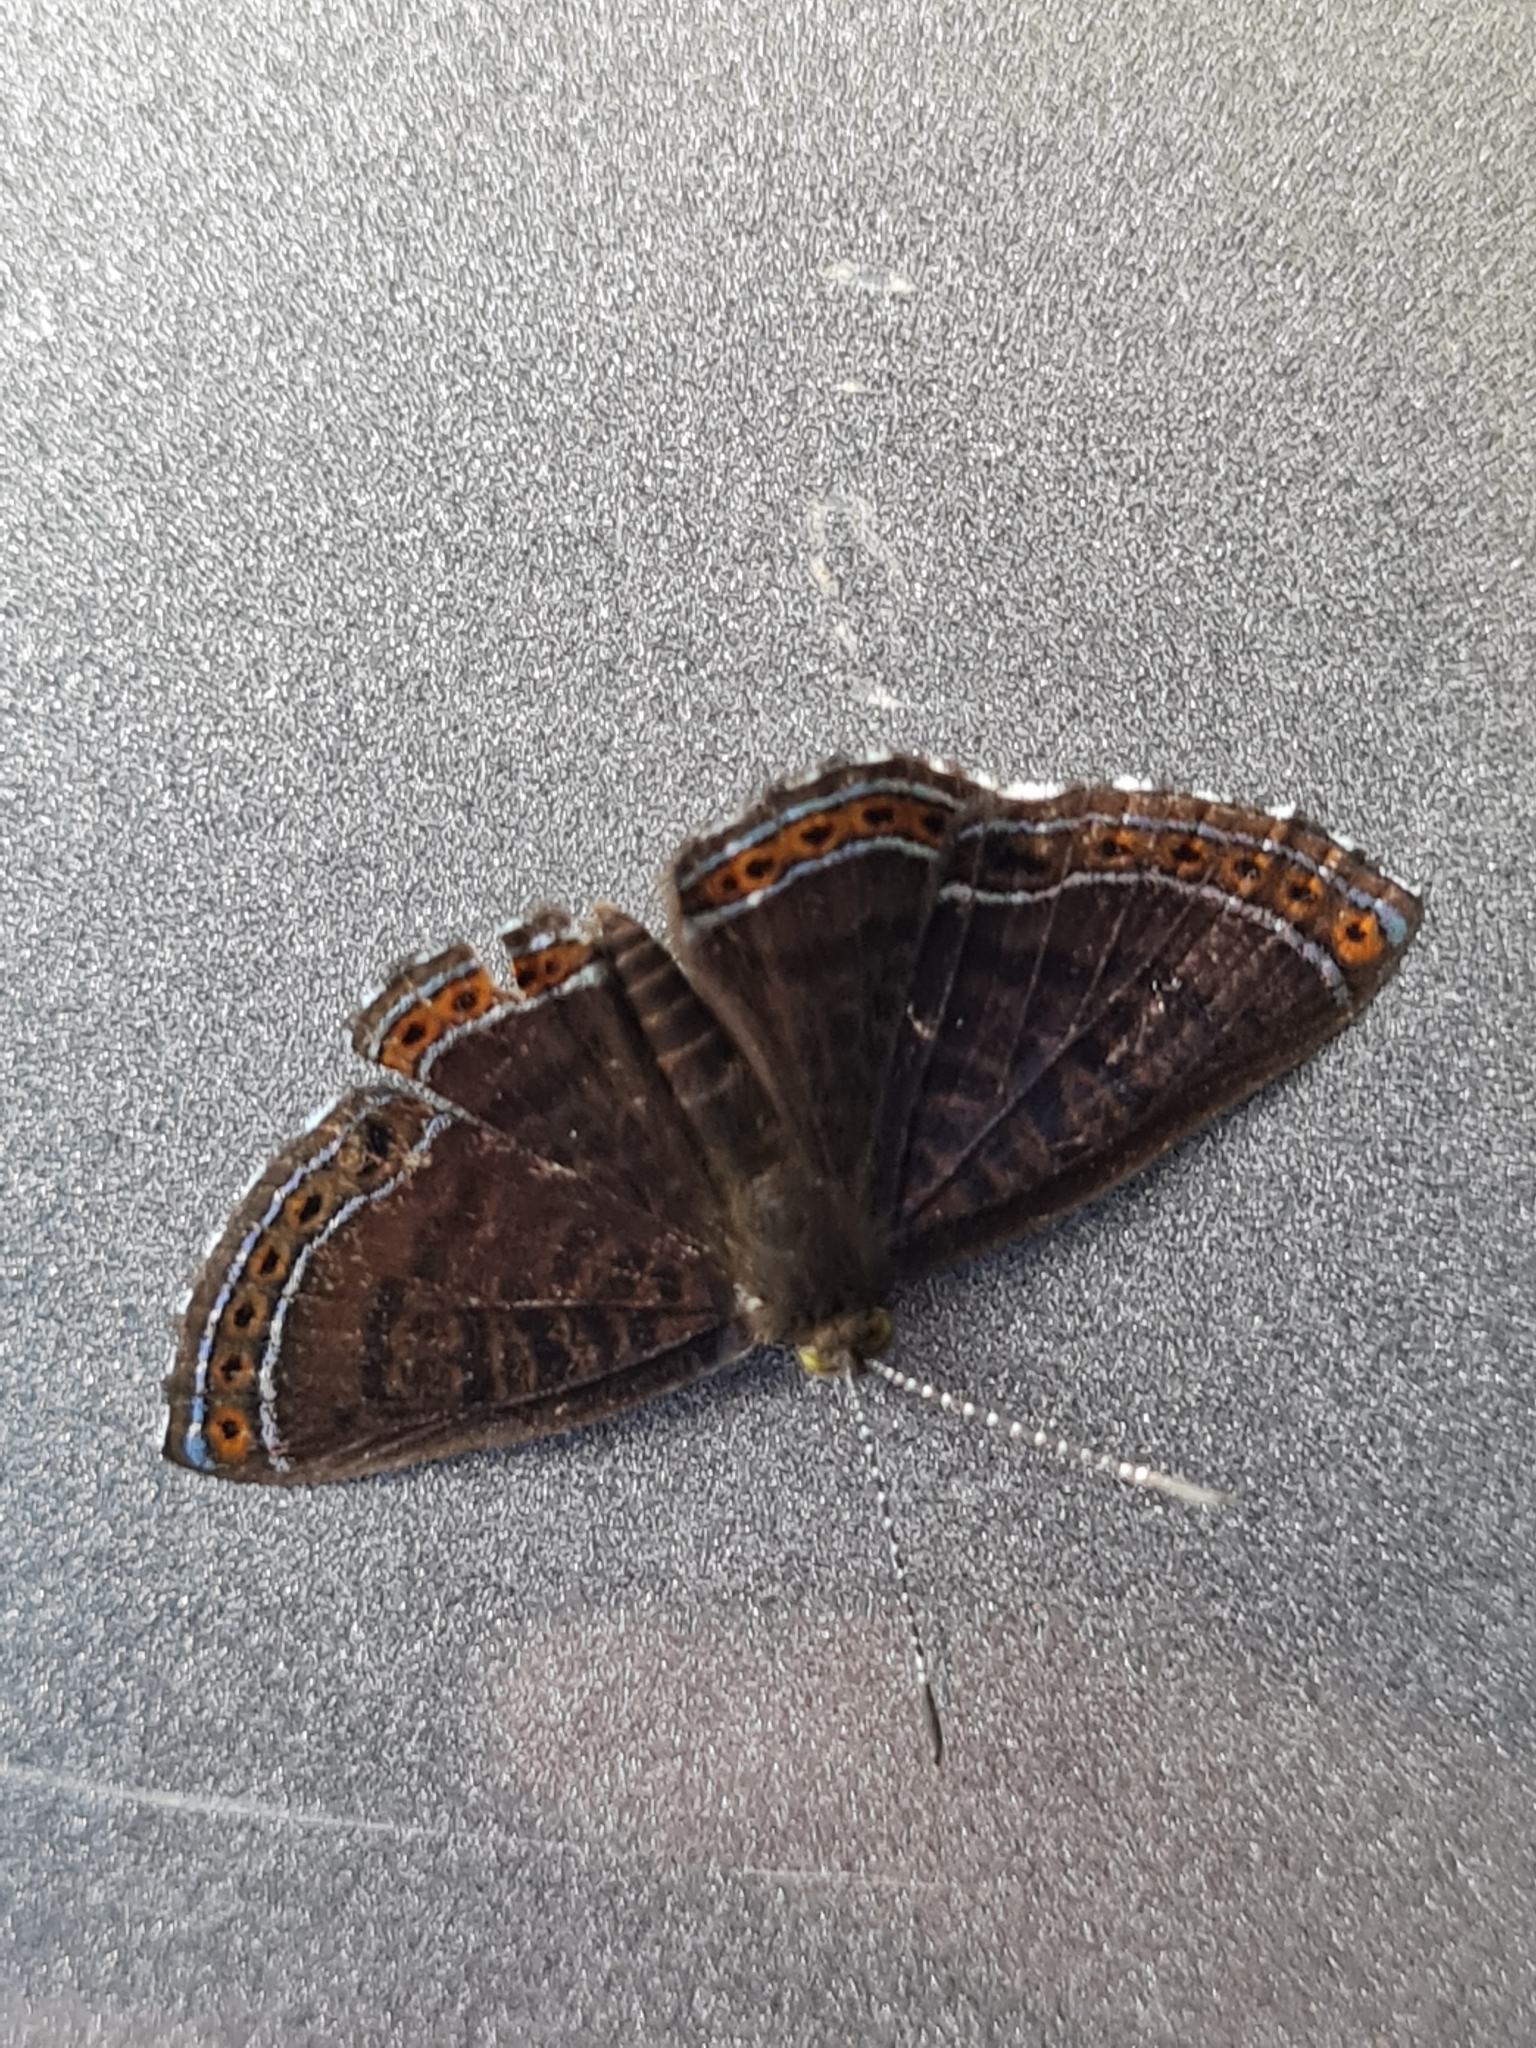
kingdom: Animalia
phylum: Arthropoda
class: Insecta
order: Lepidoptera
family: Riodinidae
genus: Detritivora
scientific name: Detritivora
